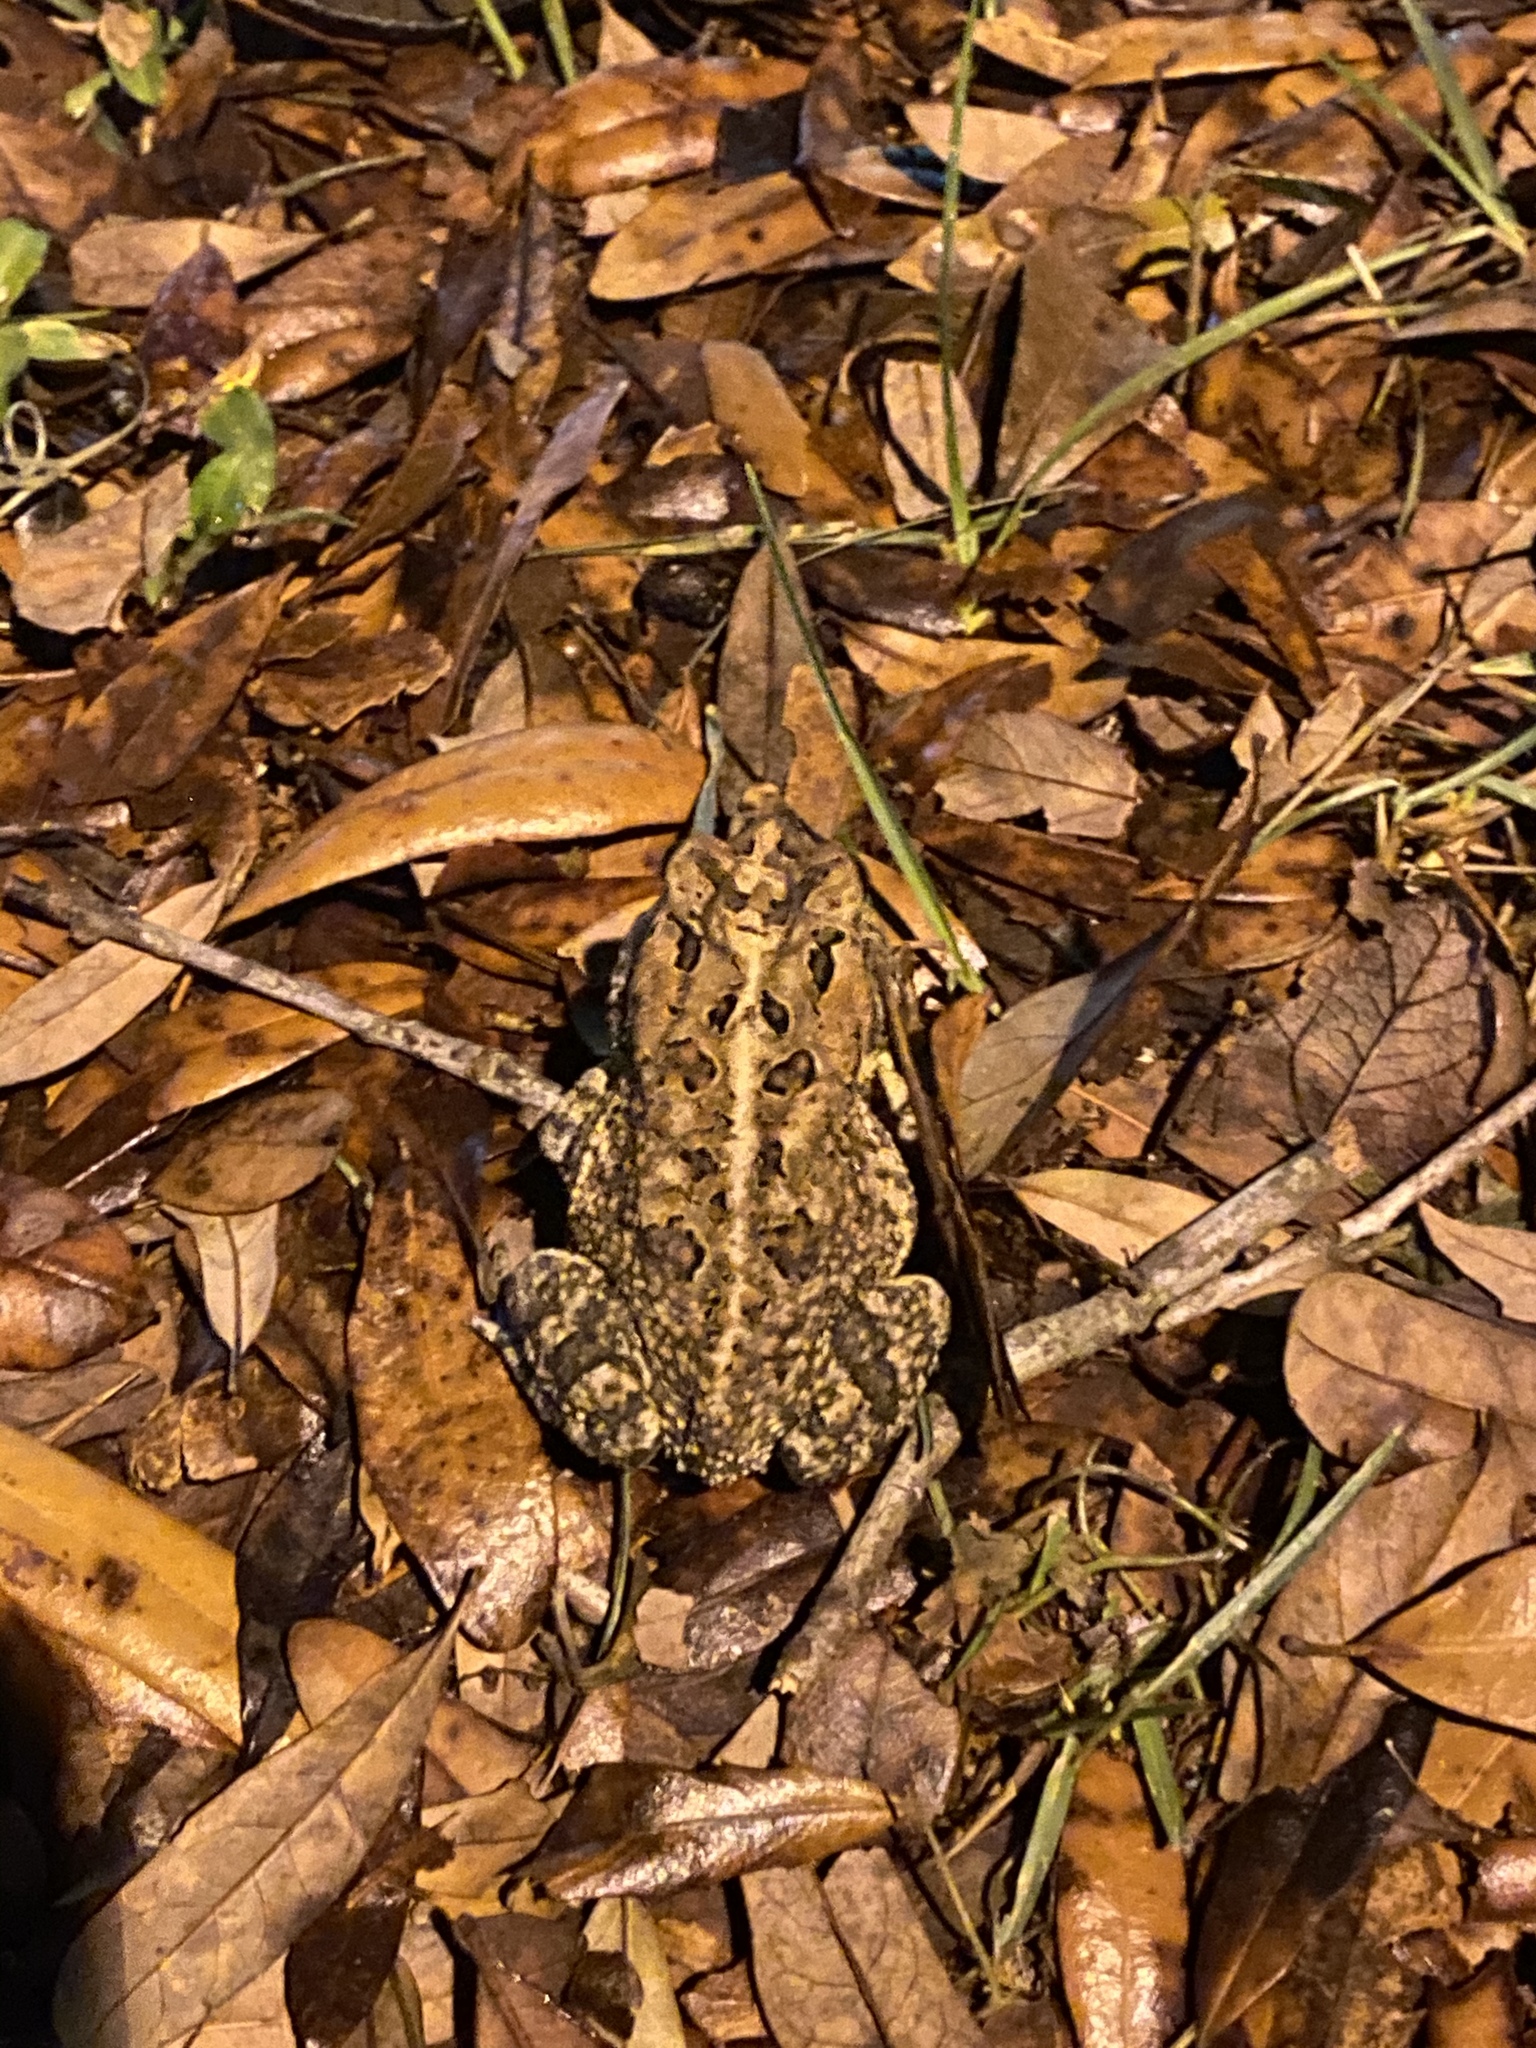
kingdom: Animalia
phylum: Chordata
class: Amphibia
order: Anura
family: Bufonidae
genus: Anaxyrus
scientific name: Anaxyrus terrestris
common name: Southern toad
